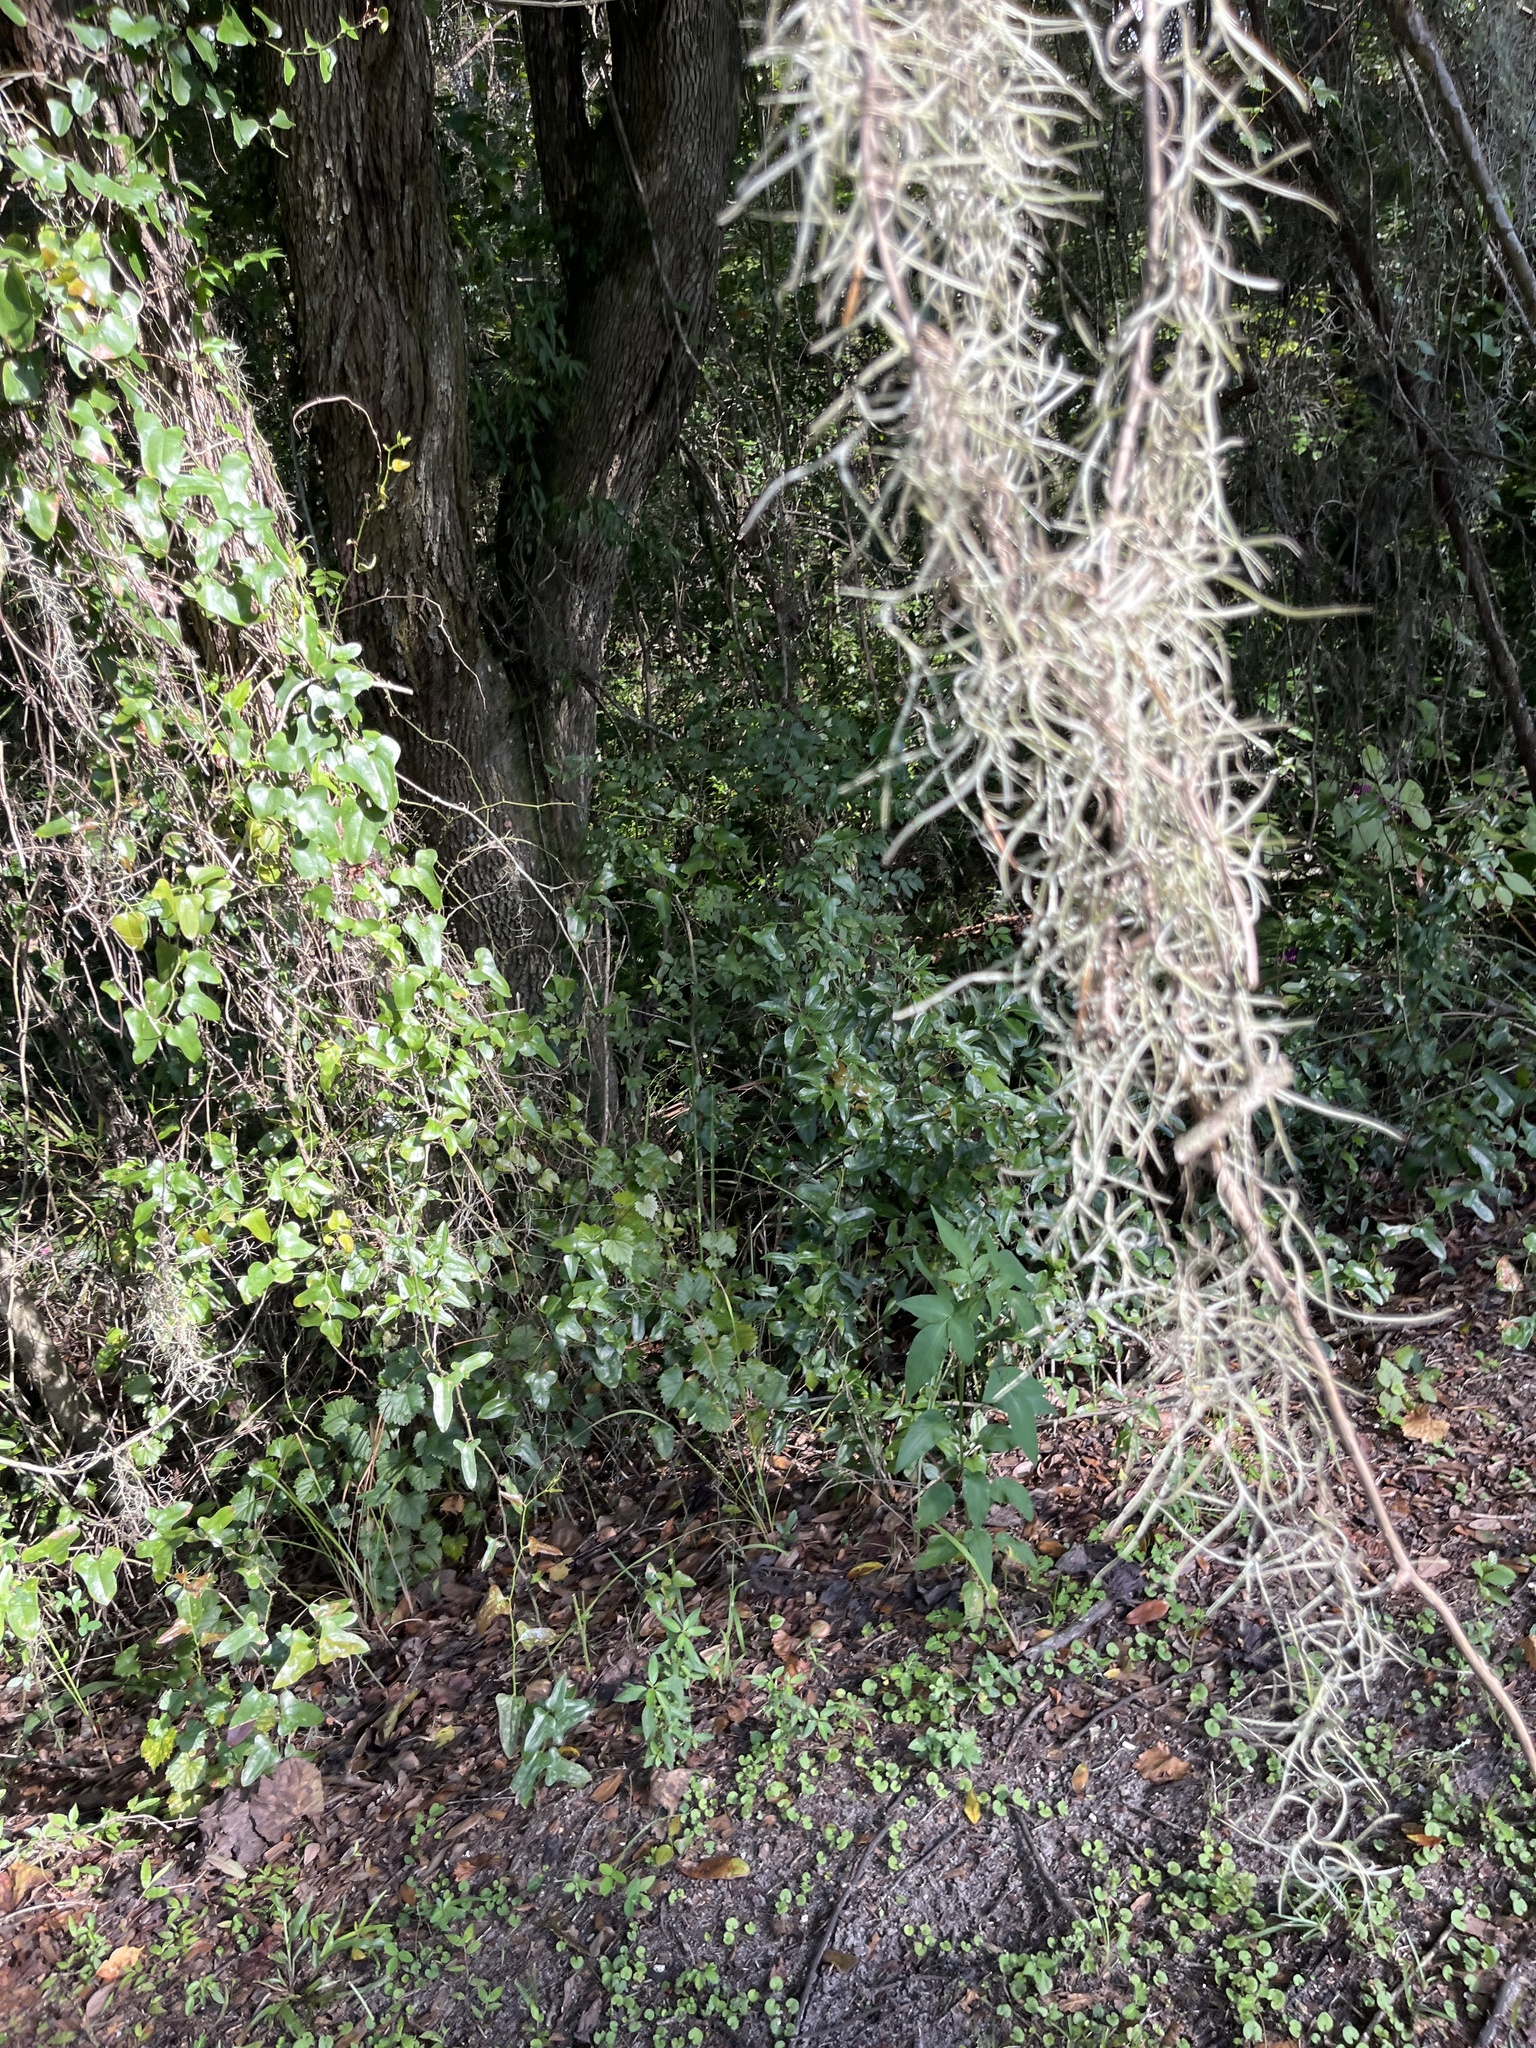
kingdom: Plantae
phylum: Tracheophyta
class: Liliopsida
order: Poales
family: Bromeliaceae
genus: Tillandsia
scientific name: Tillandsia usneoides
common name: Spanish moss
